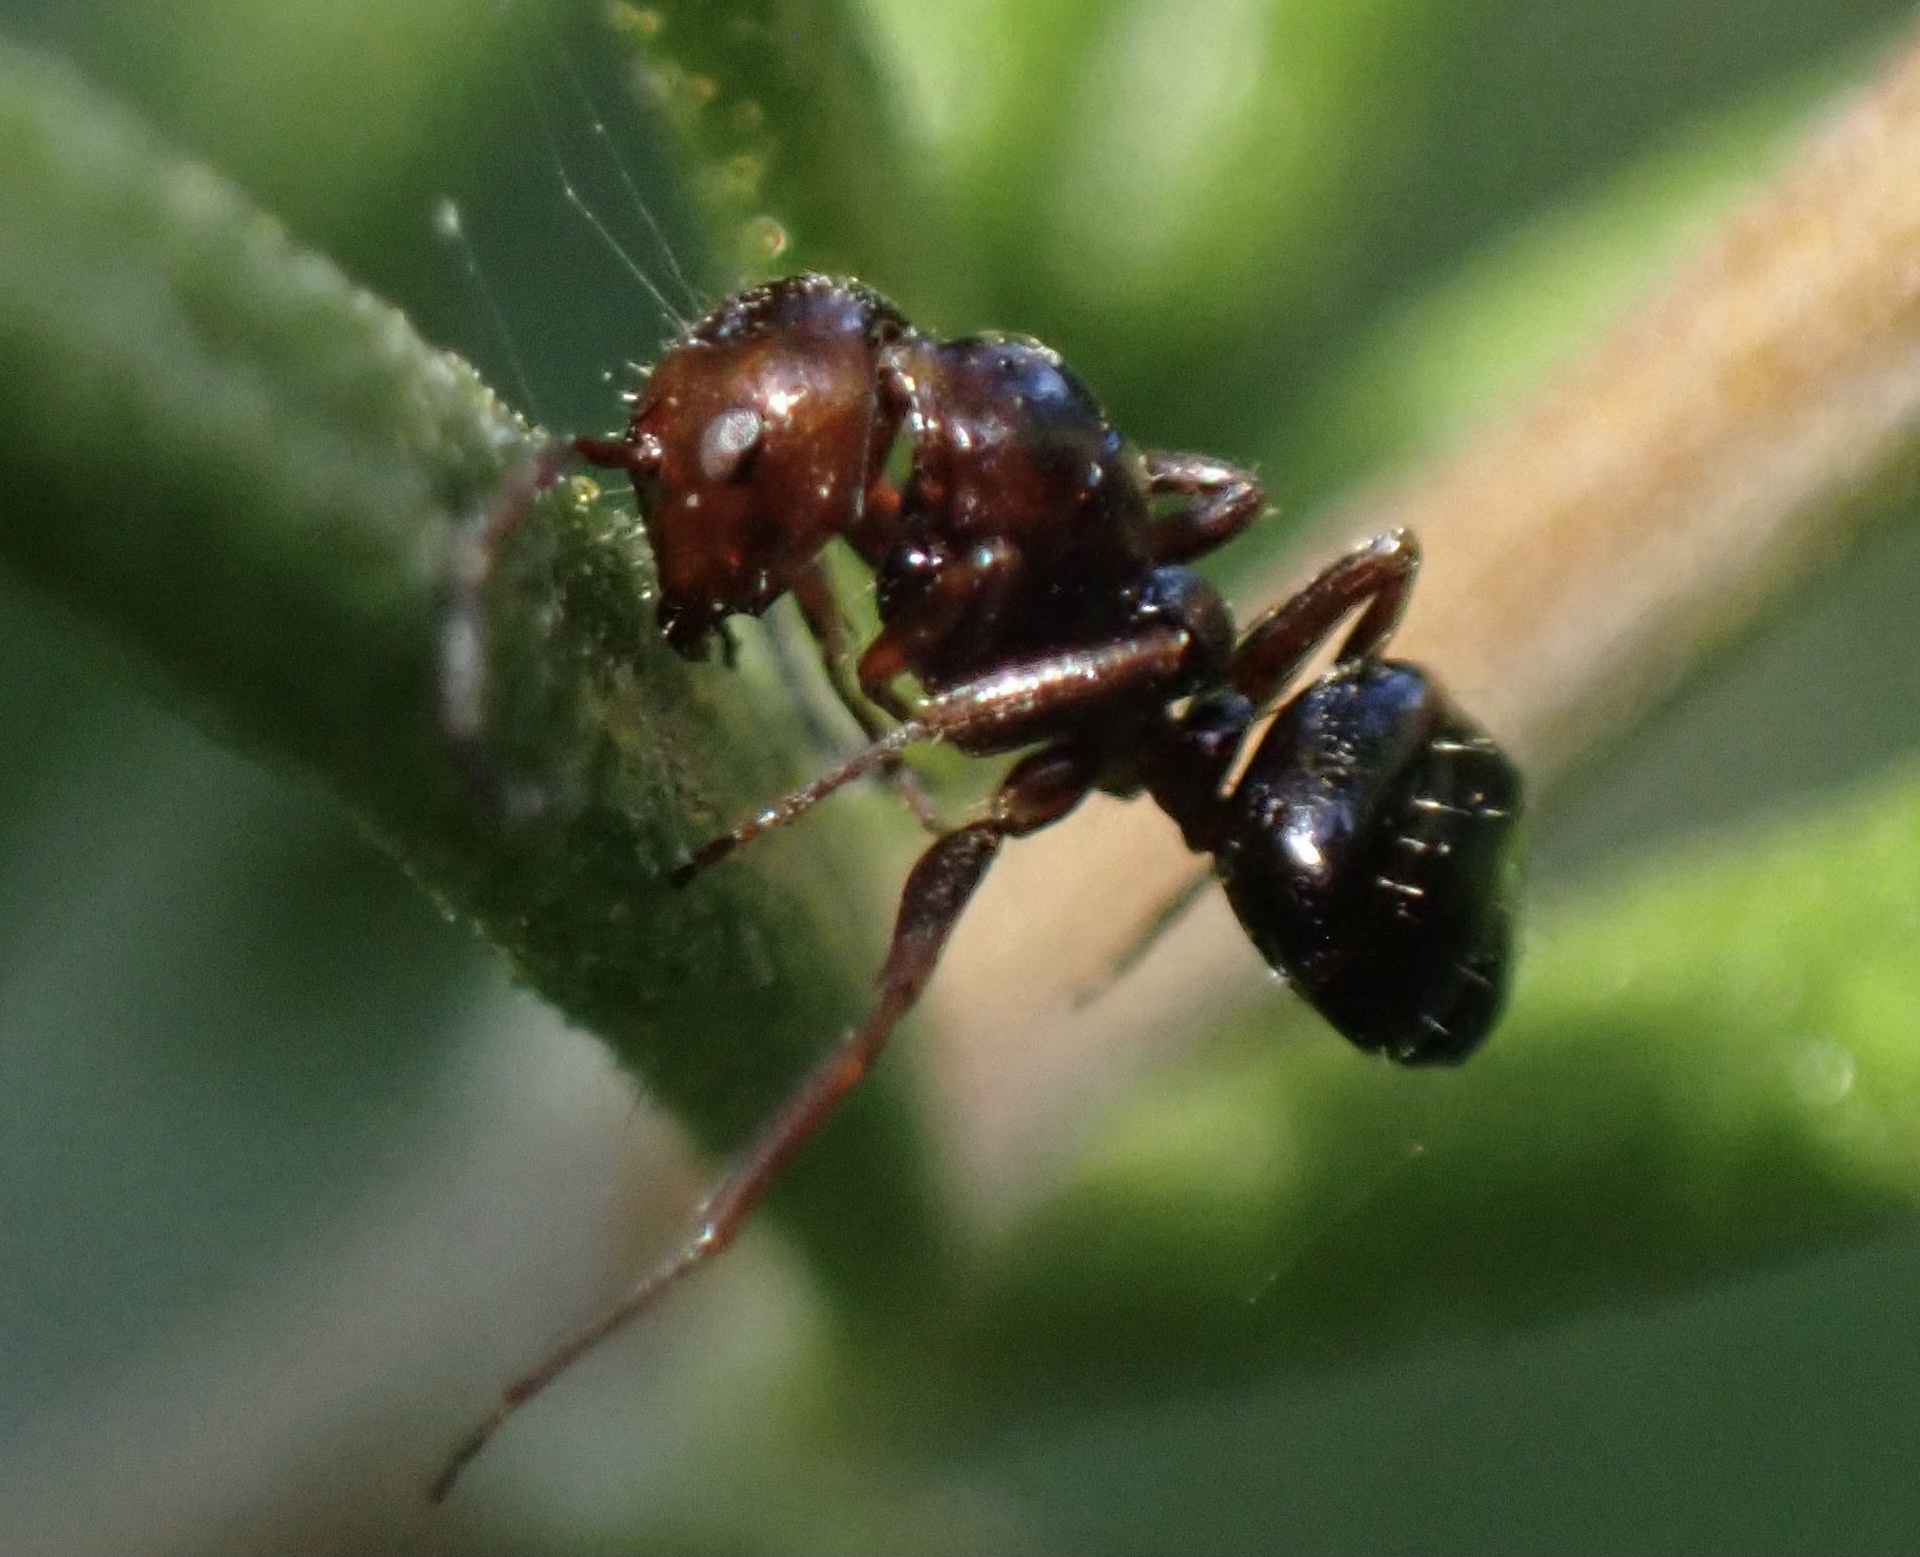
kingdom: Animalia
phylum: Arthropoda
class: Insecta
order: Hymenoptera
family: Formicidae
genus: Camponotus
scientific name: Camponotus lateralis
